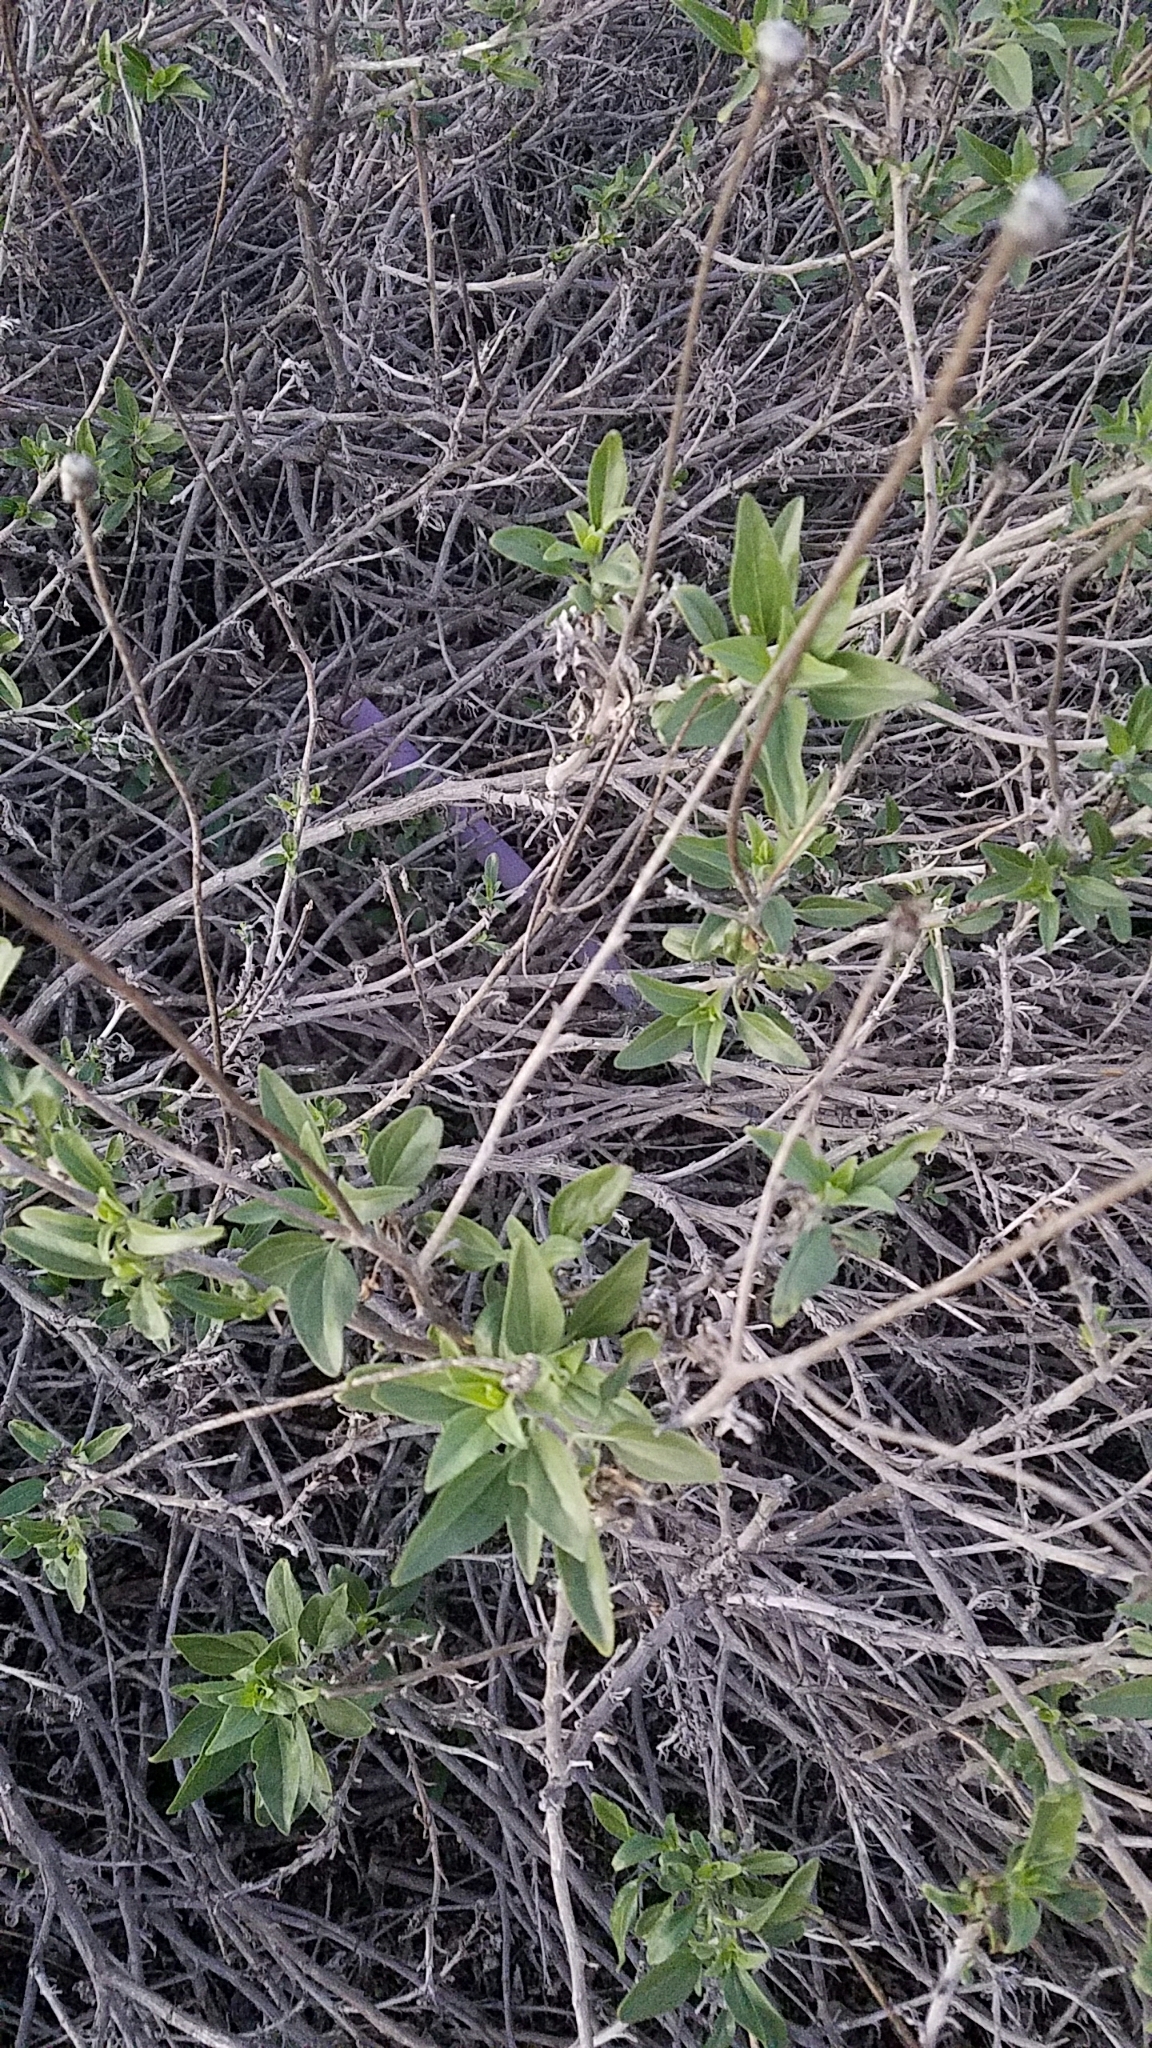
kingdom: Plantae
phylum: Tracheophyta
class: Magnoliopsida
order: Asterales
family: Asteraceae
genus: Encelia
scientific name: Encelia californica
